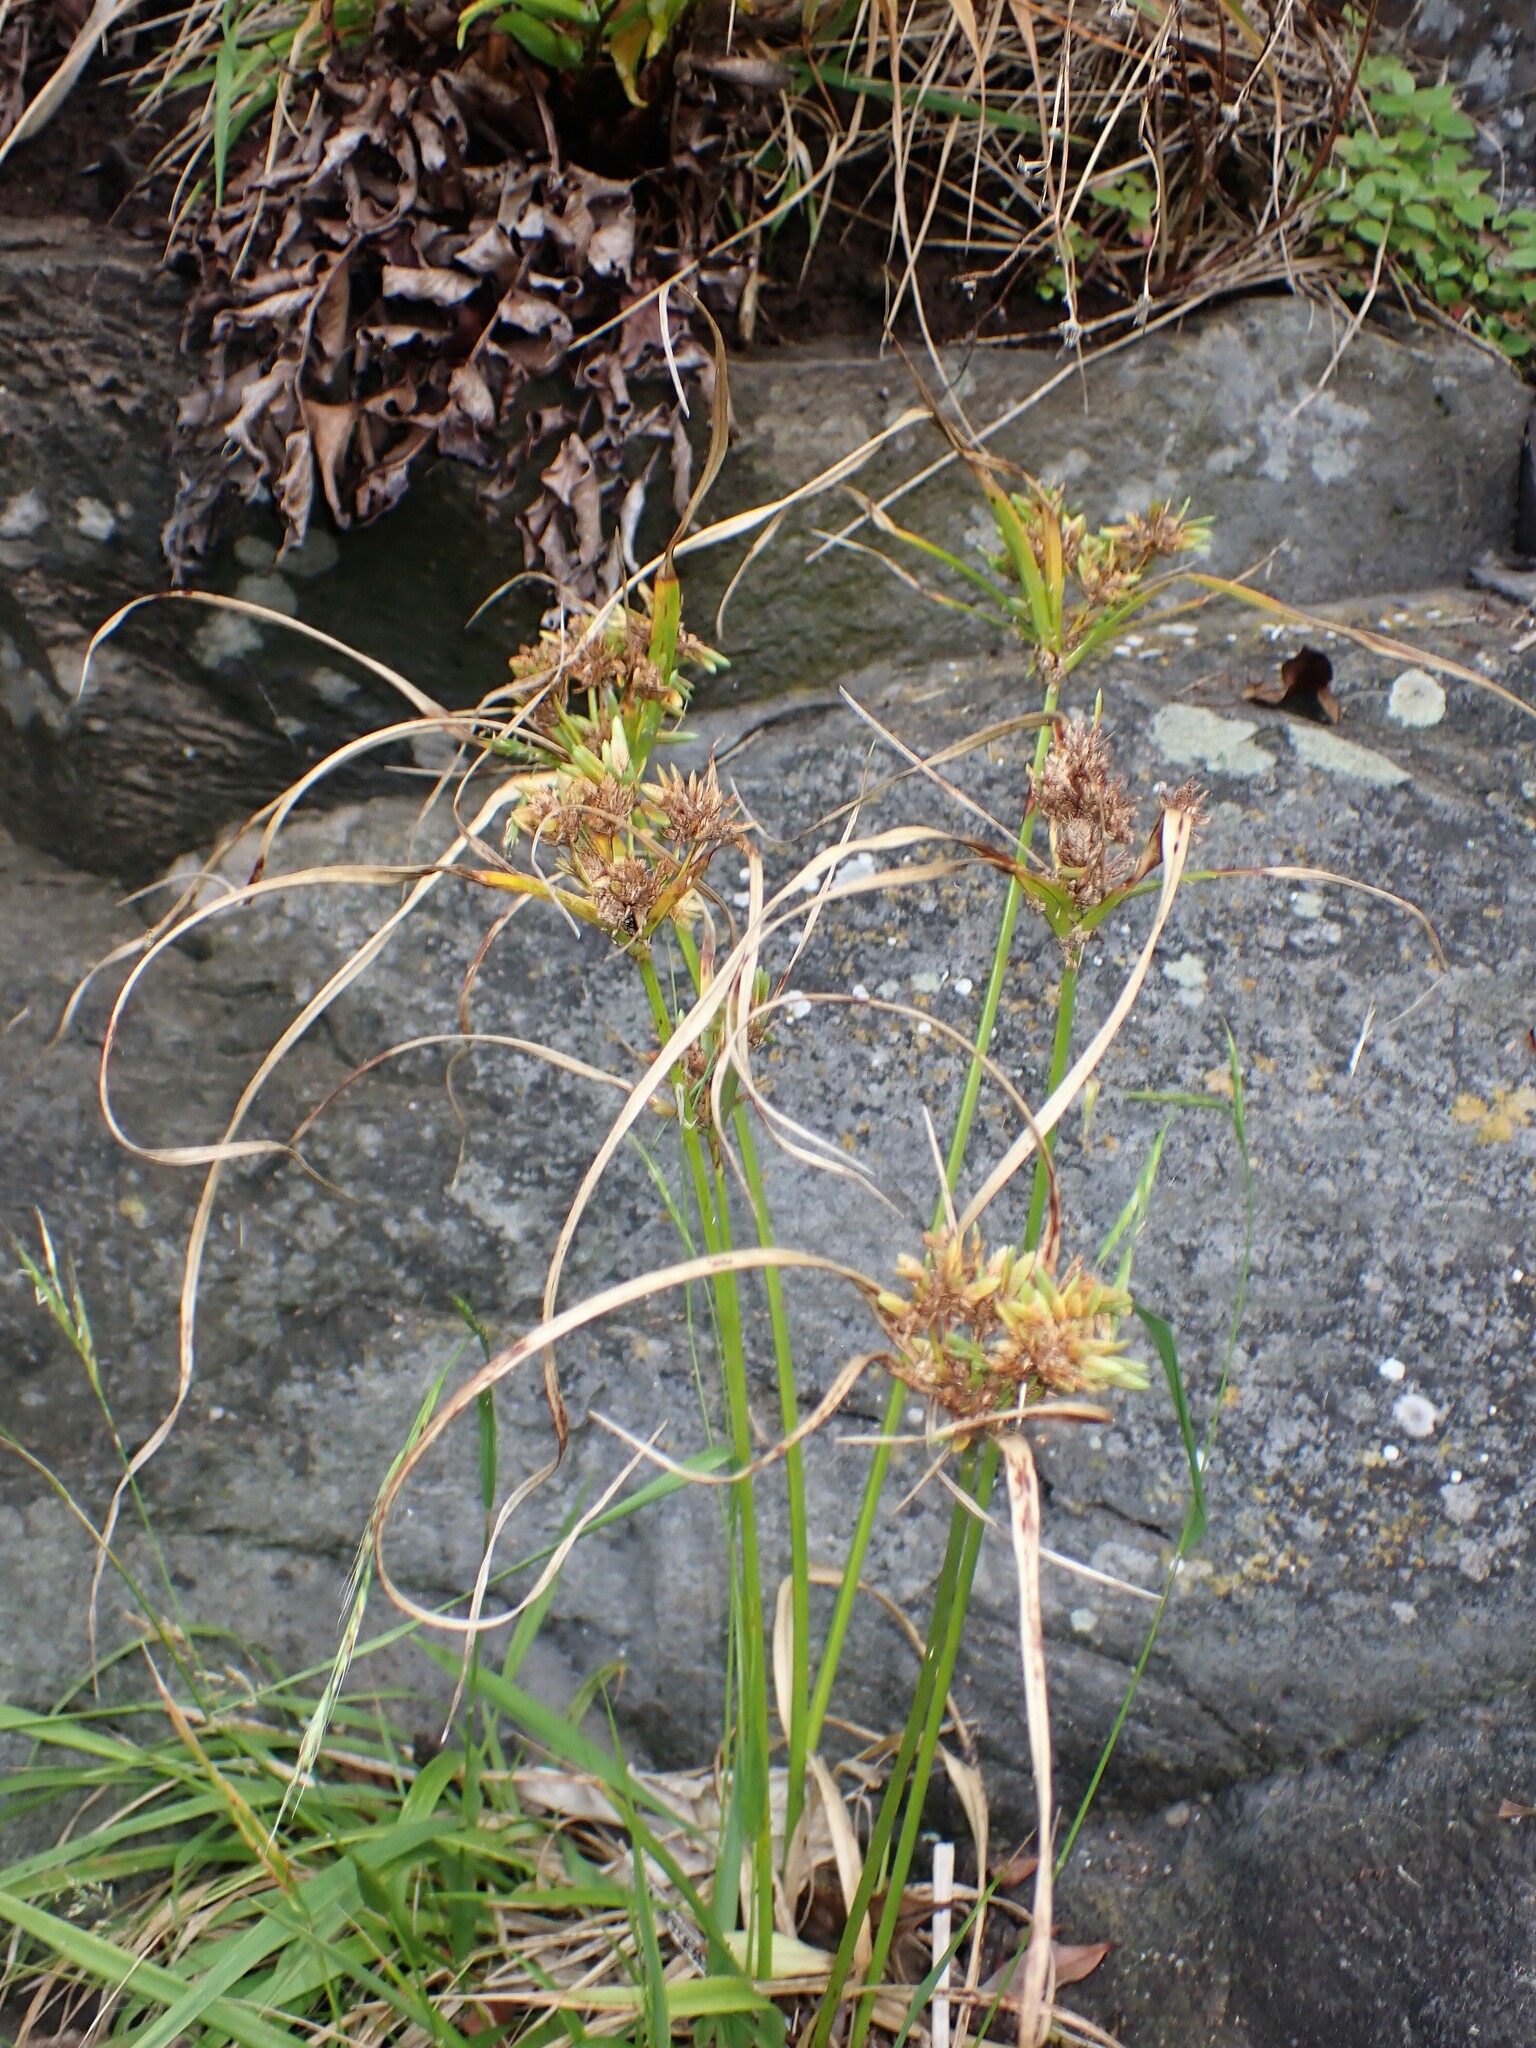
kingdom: Plantae
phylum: Tracheophyta
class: Liliopsida
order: Poales
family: Cyperaceae
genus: Cyperus
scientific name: Cyperus eragrostis
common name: Tall flatsedge
